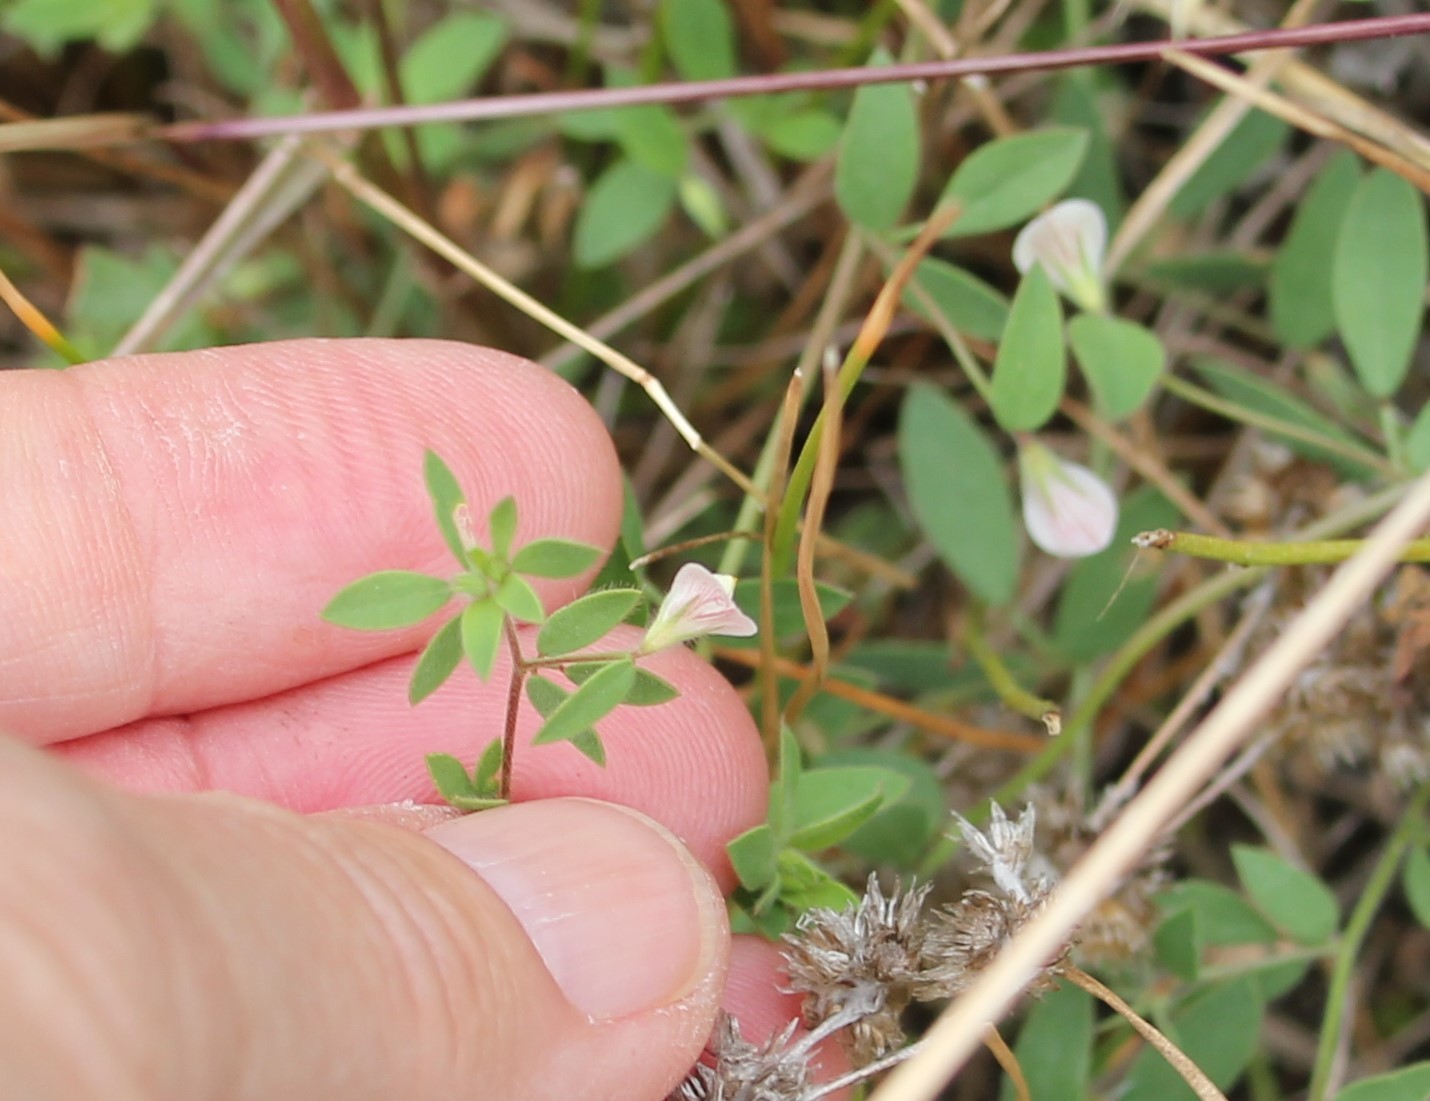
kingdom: Plantae
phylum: Tracheophyta
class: Magnoliopsida
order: Fabales
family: Fabaceae
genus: Acmispon
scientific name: Acmispon americanus
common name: American bird's-foot trefoil
